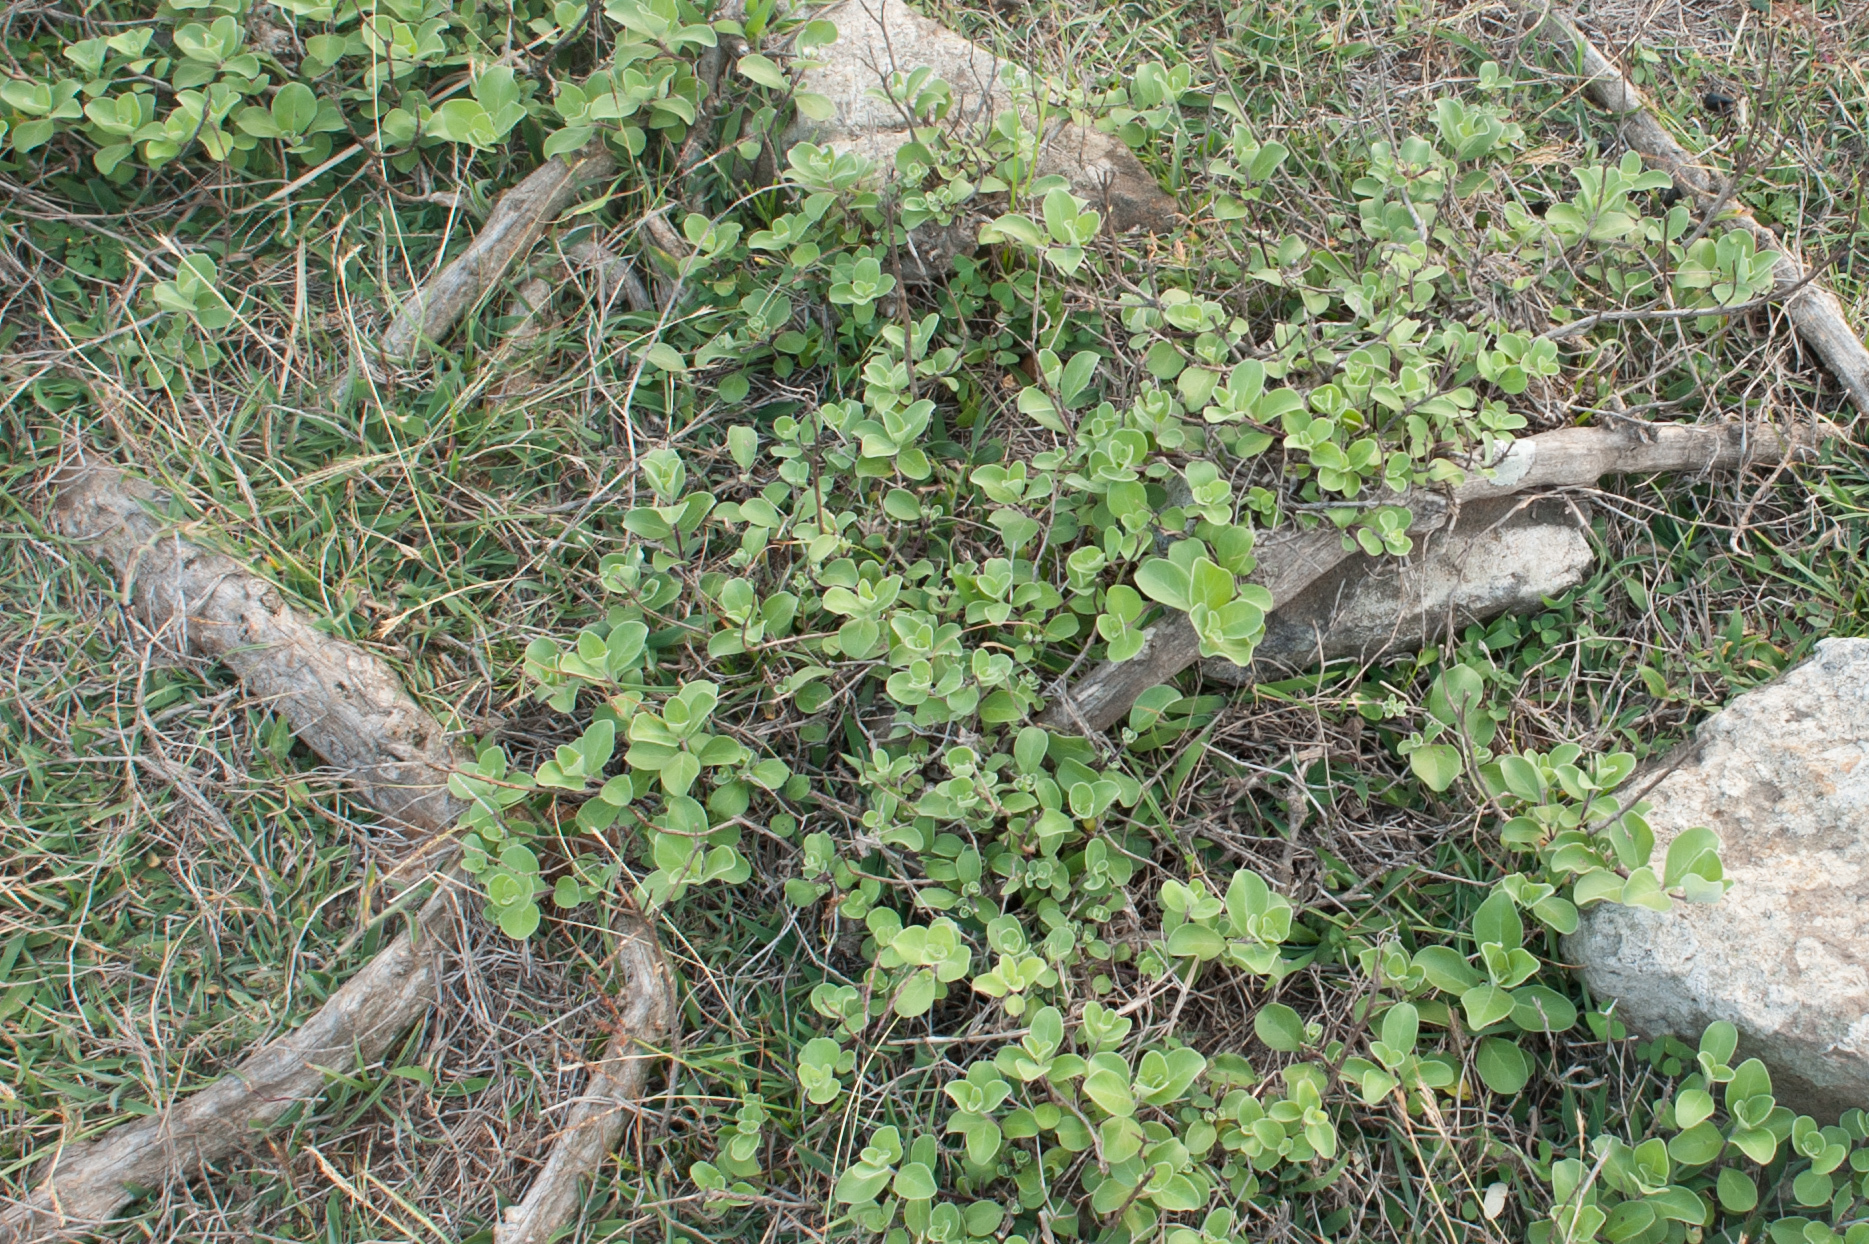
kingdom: Plantae
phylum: Tracheophyta
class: Magnoliopsida
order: Lamiales
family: Lamiaceae
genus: Vitex
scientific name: Vitex rotundifolia
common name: Beach vitex
